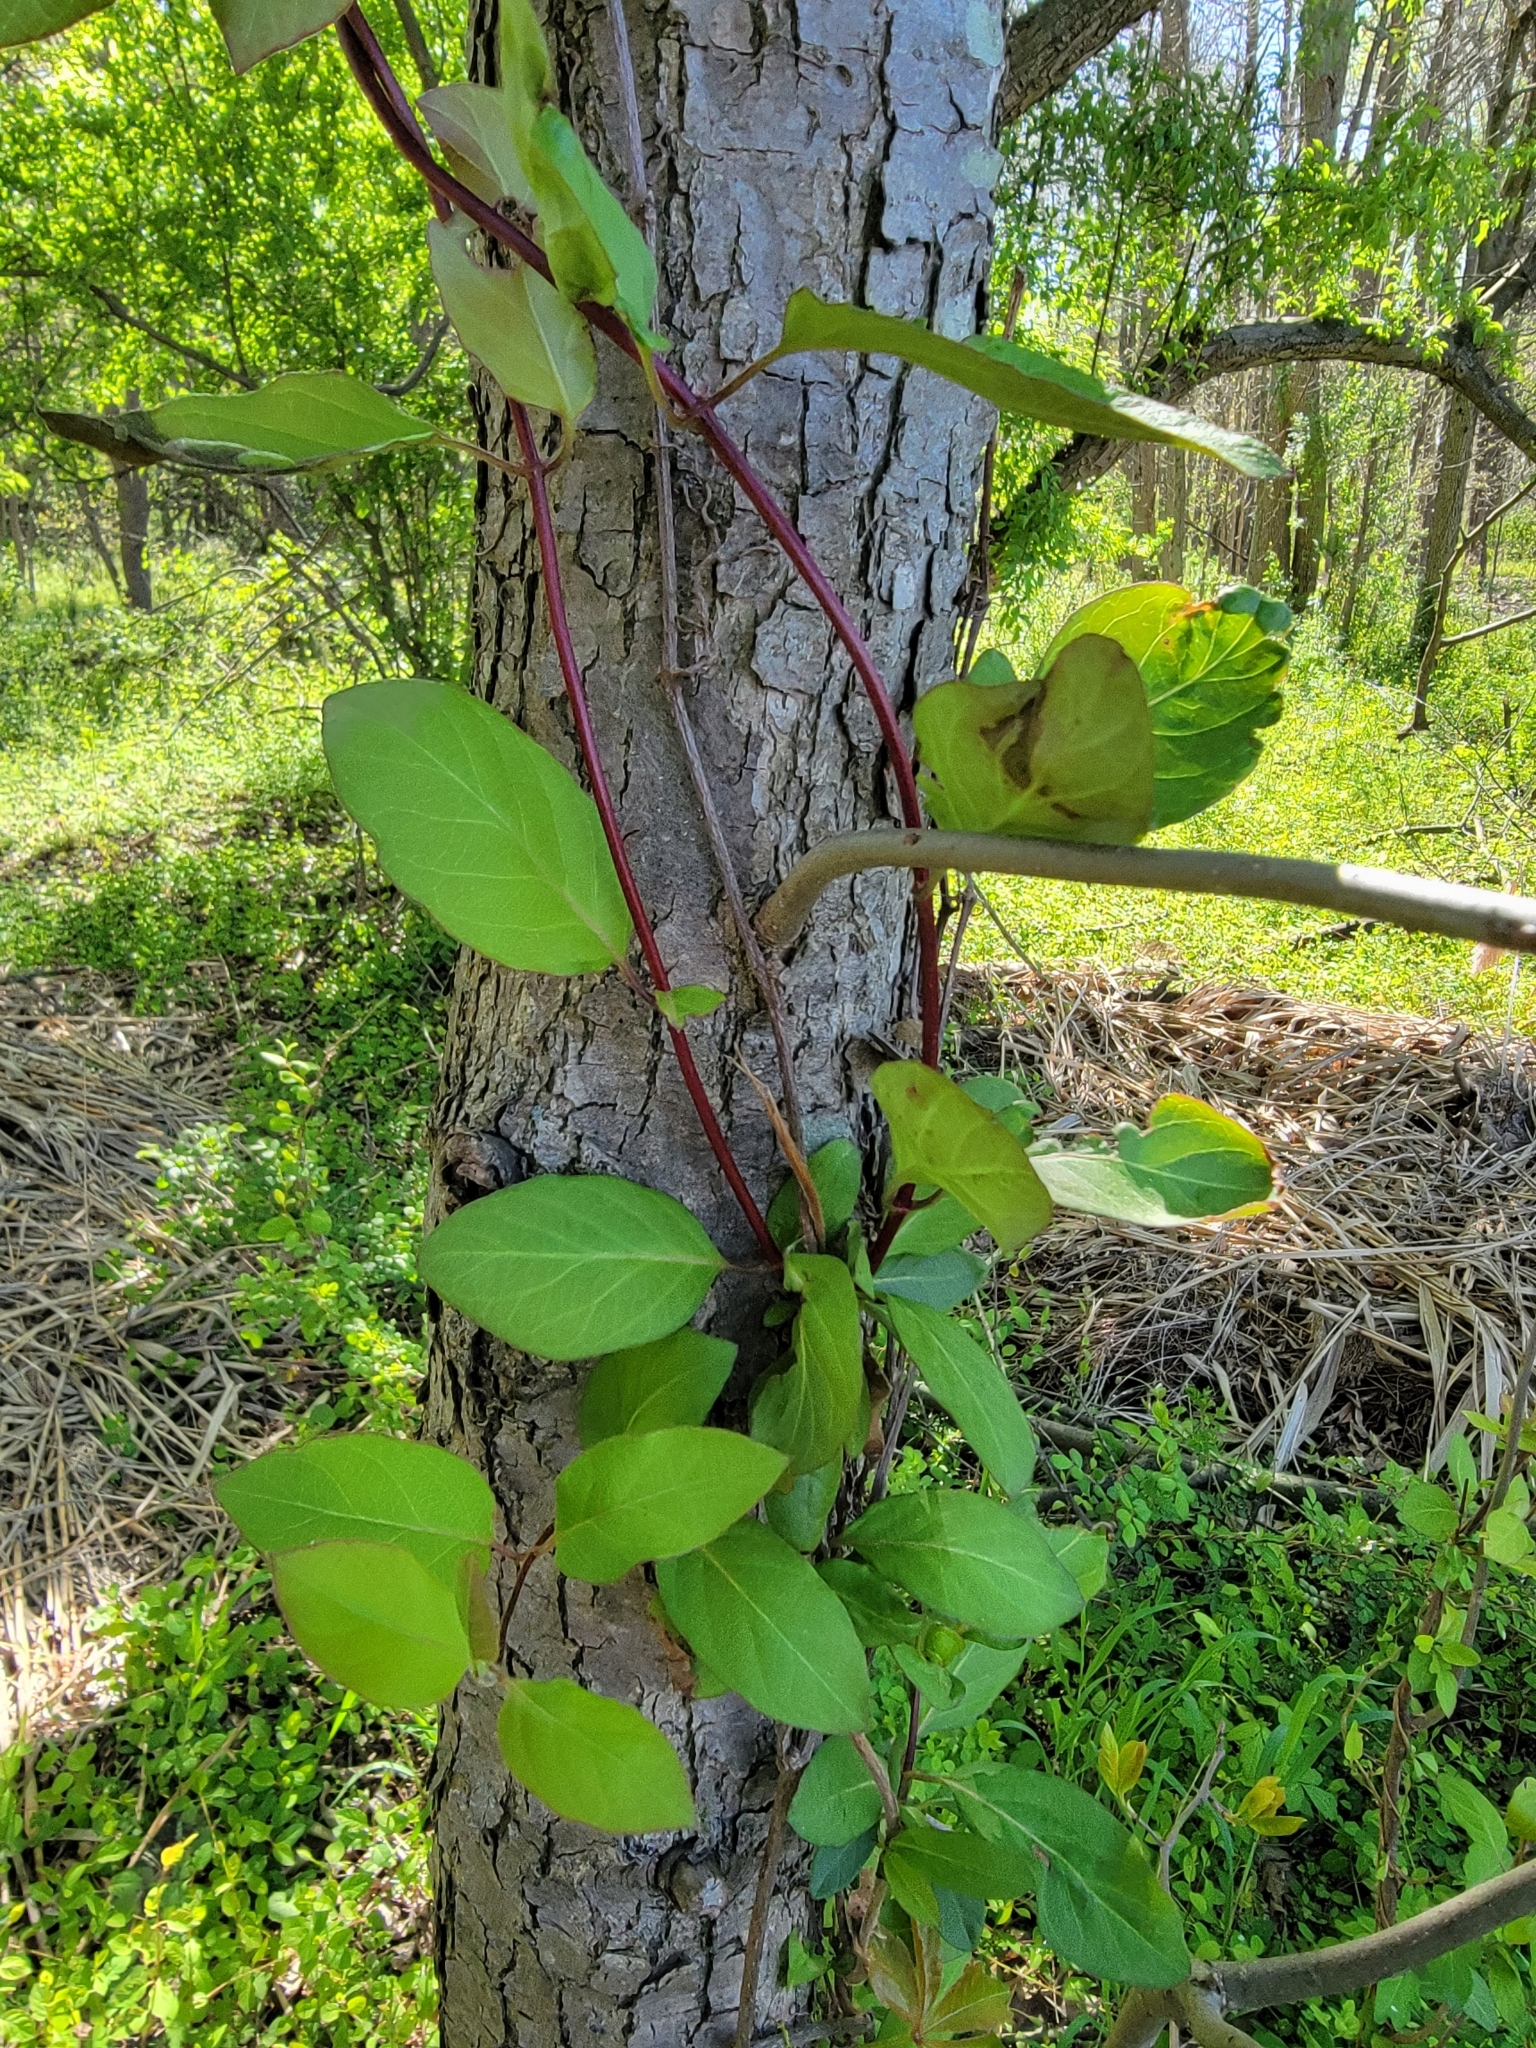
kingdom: Plantae
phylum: Tracheophyta
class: Magnoliopsida
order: Dipsacales
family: Caprifoliaceae
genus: Lonicera
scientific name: Lonicera japonica
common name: Japanese honeysuckle
